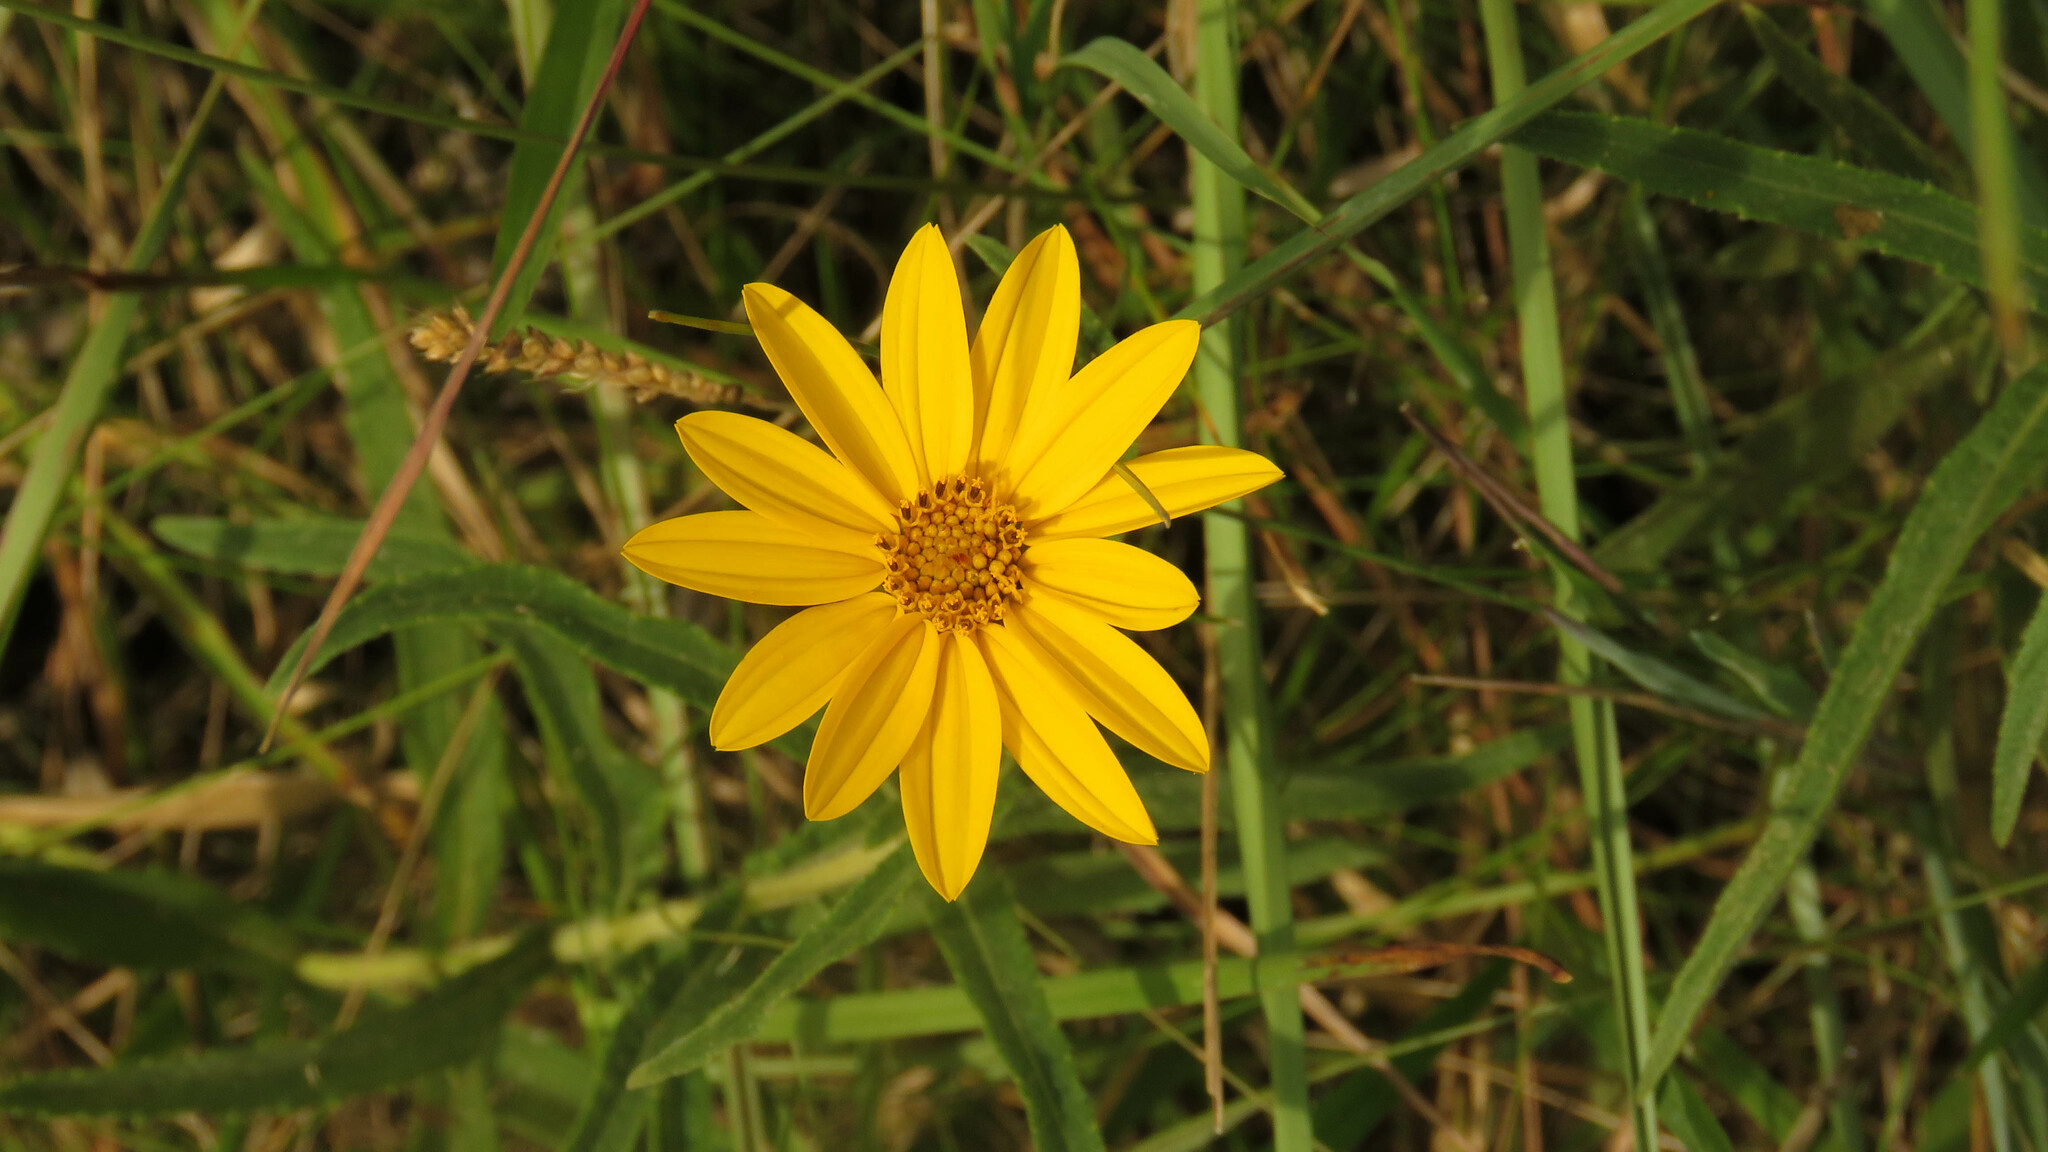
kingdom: Plantae
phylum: Tracheophyta
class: Magnoliopsida
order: Asterales
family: Asteraceae
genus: Wedelia
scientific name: Wedelia montevidensis
